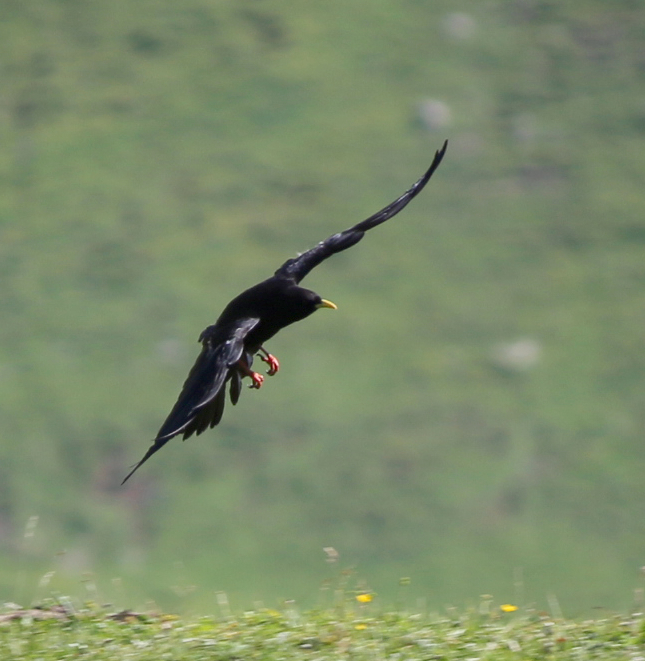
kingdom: Animalia
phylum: Chordata
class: Aves
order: Passeriformes
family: Corvidae
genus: Pyrrhocorax
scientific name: Pyrrhocorax graculus
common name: Alpine chough
